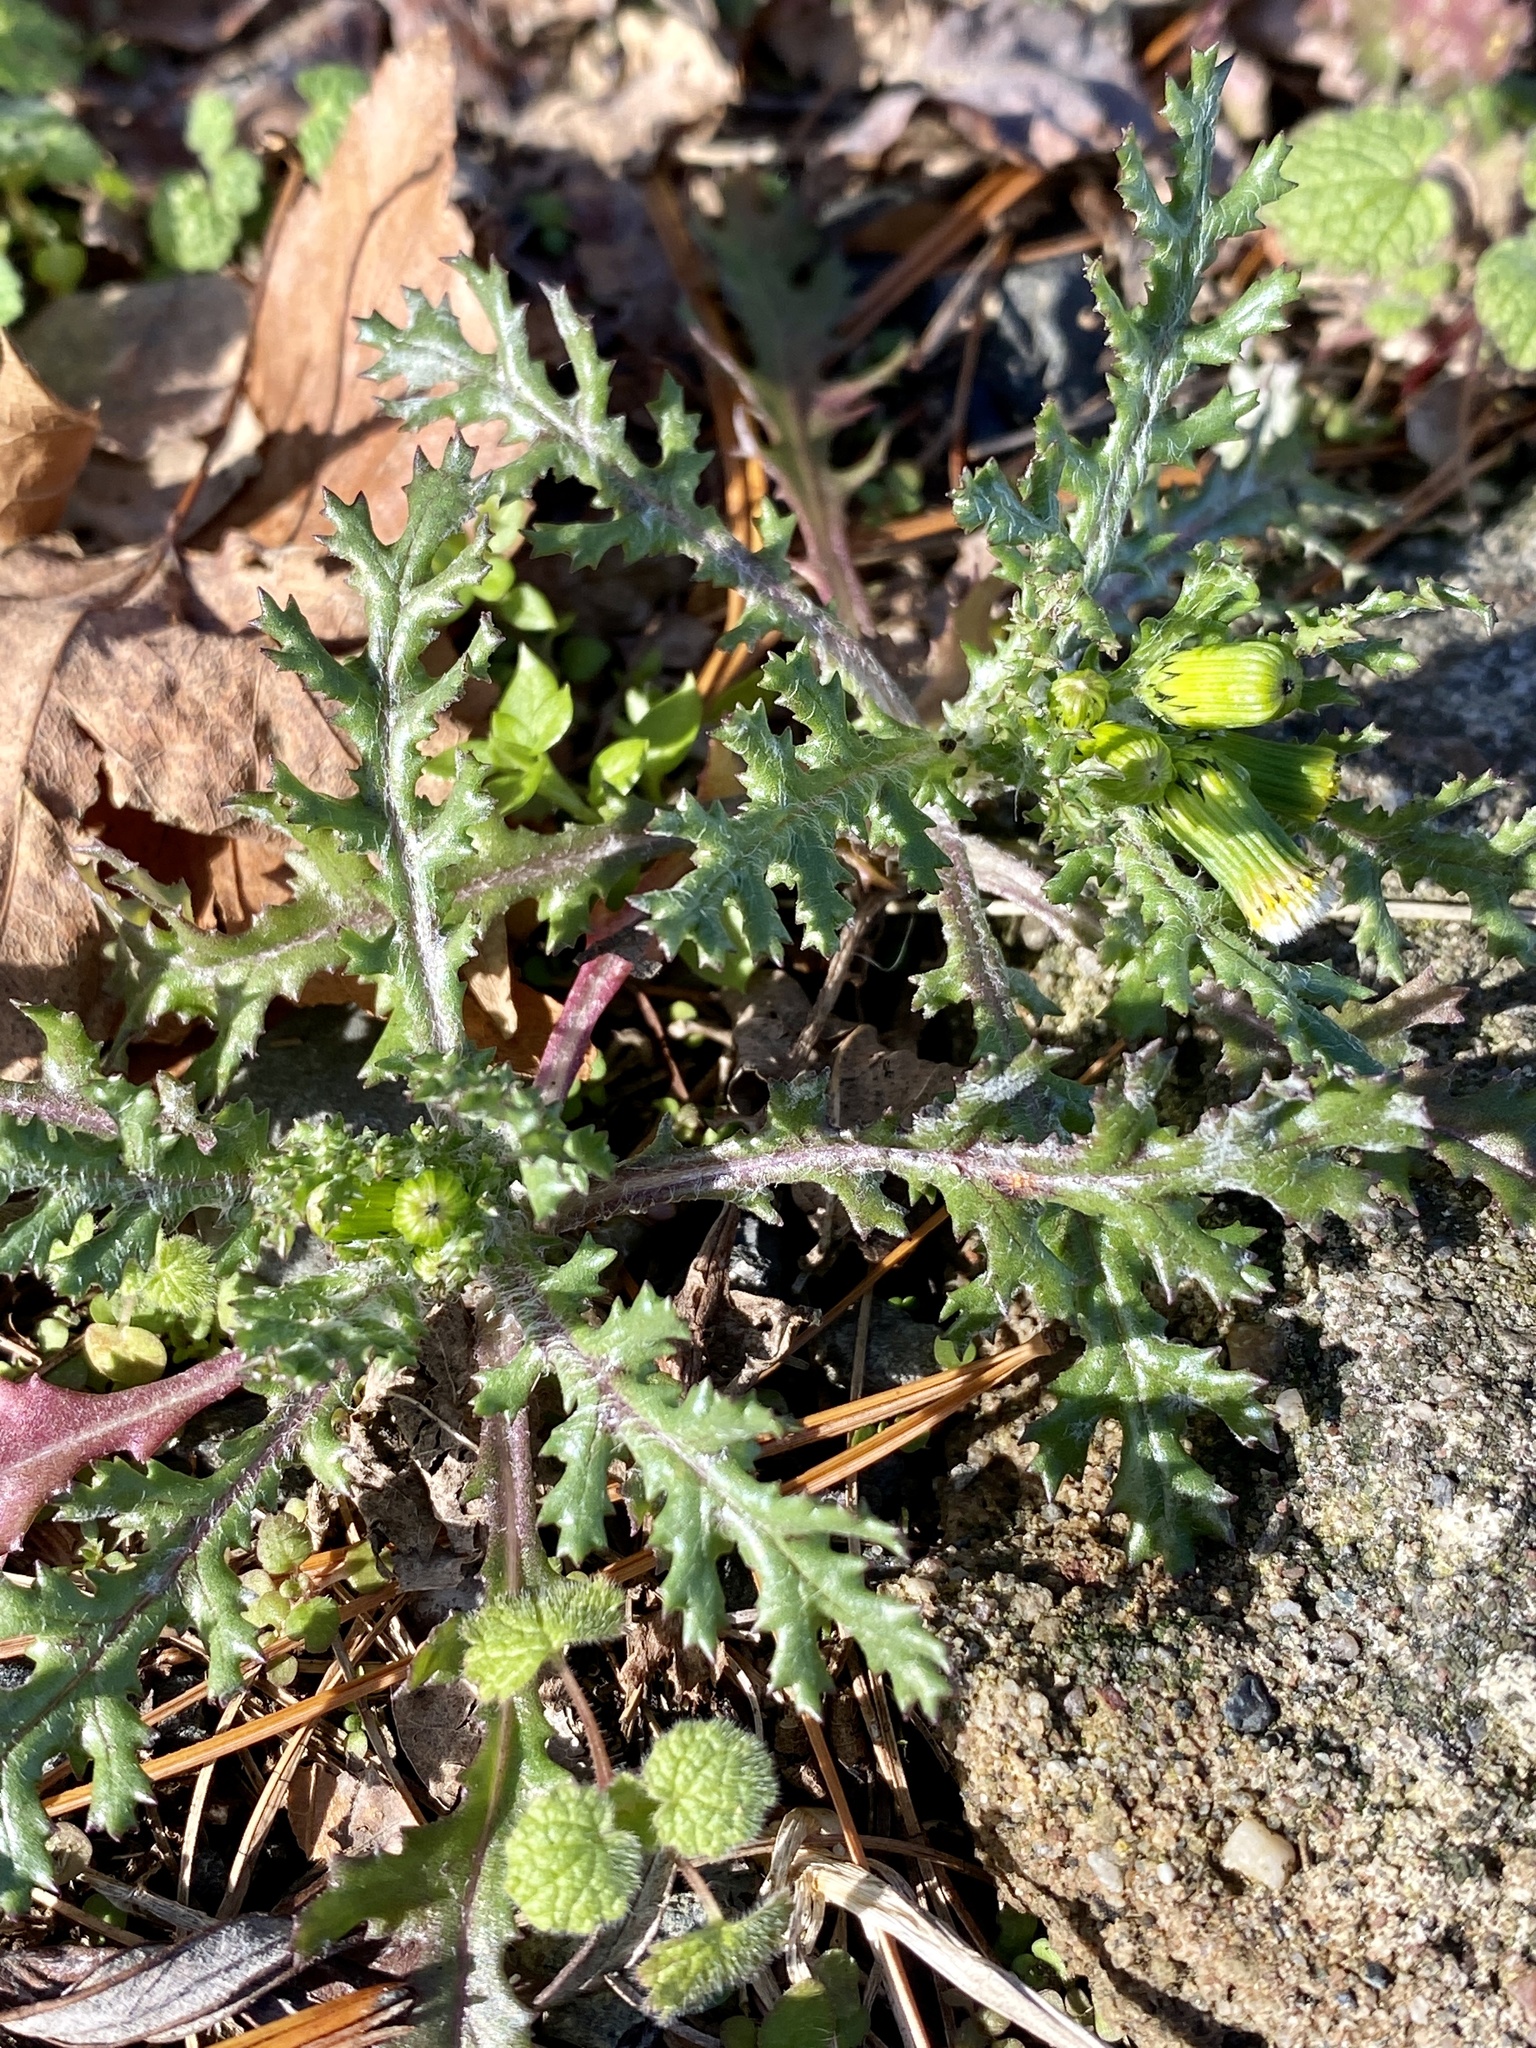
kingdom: Plantae
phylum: Tracheophyta
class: Magnoliopsida
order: Asterales
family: Asteraceae
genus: Senecio
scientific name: Senecio vulgaris
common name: Old-man-in-the-spring
